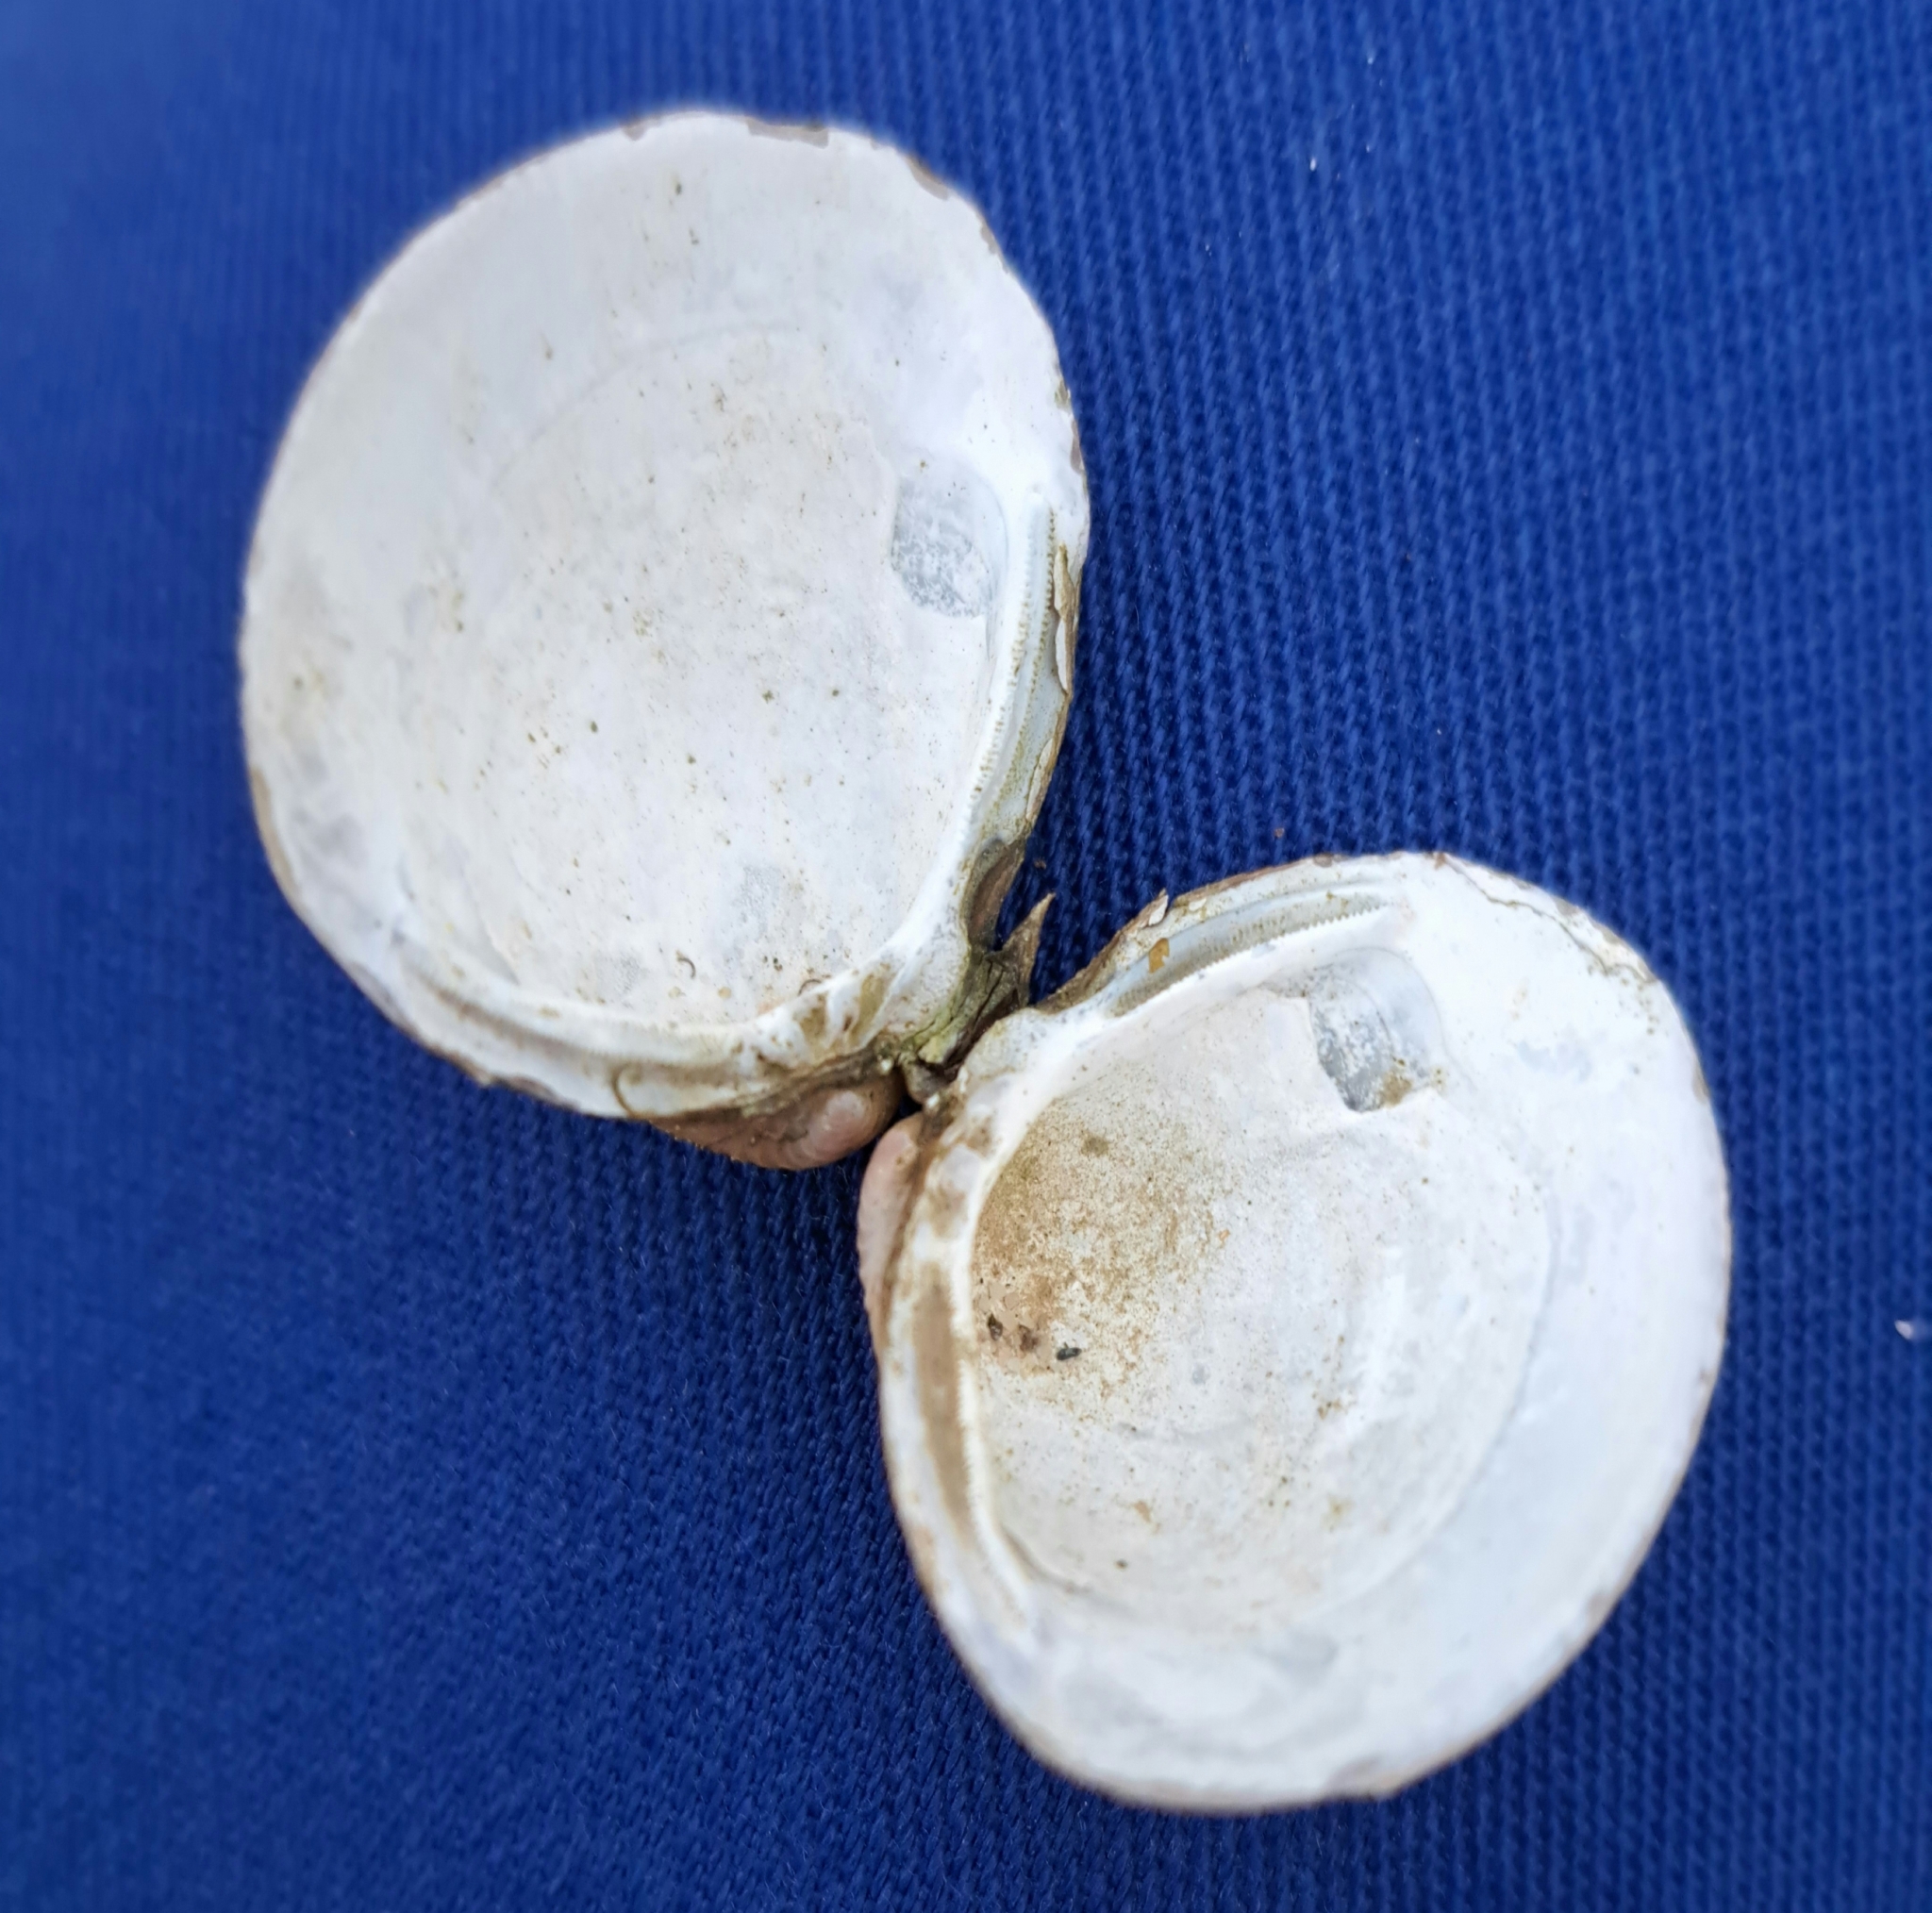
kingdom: Animalia
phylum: Mollusca
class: Bivalvia
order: Venerida
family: Cyrenidae
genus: Corbicula
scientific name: Corbicula fluminea
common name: Asian clam
